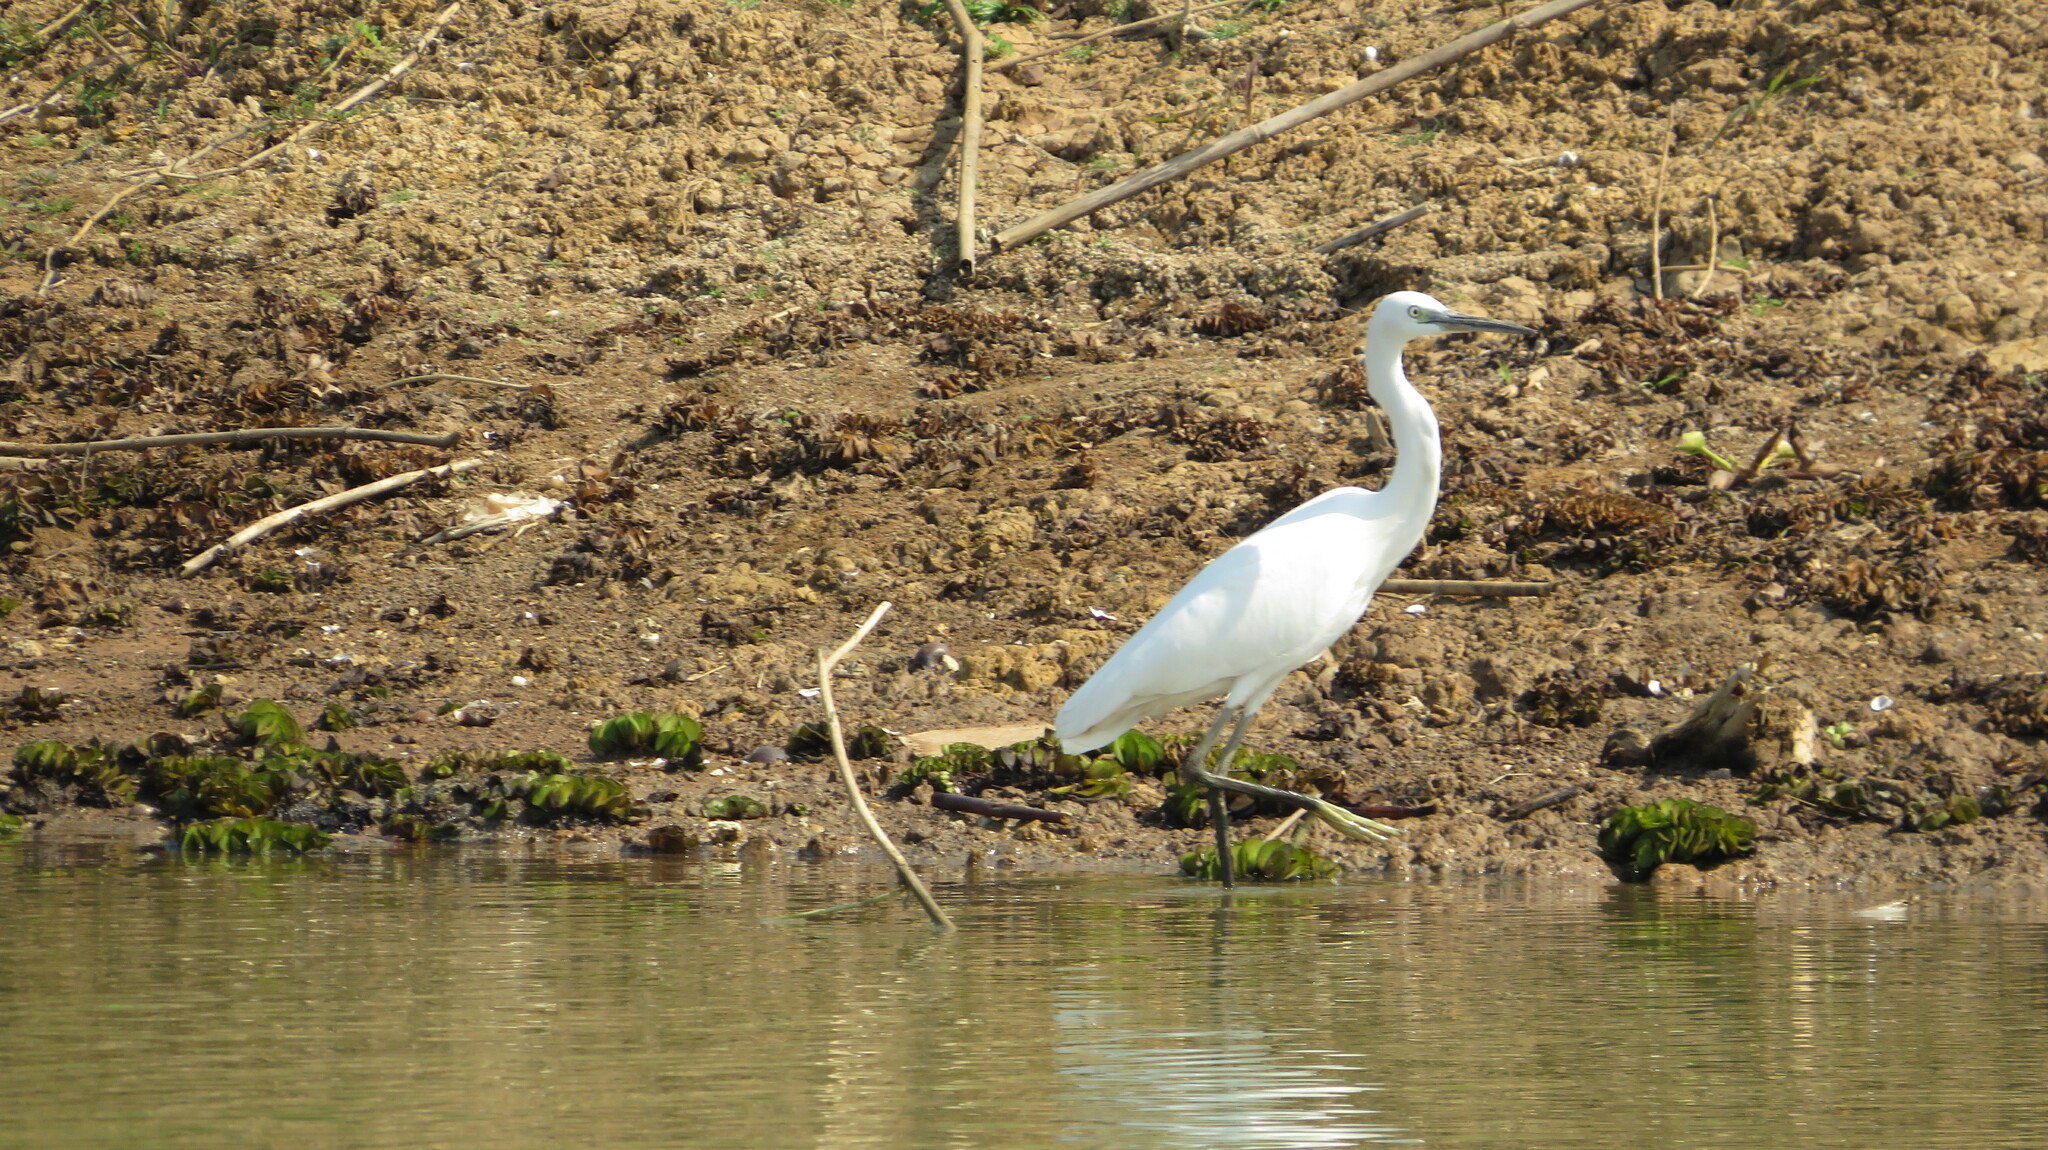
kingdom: Animalia
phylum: Chordata
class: Aves
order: Pelecaniformes
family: Ardeidae
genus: Egretta
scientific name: Egretta garzetta
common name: Little egret
